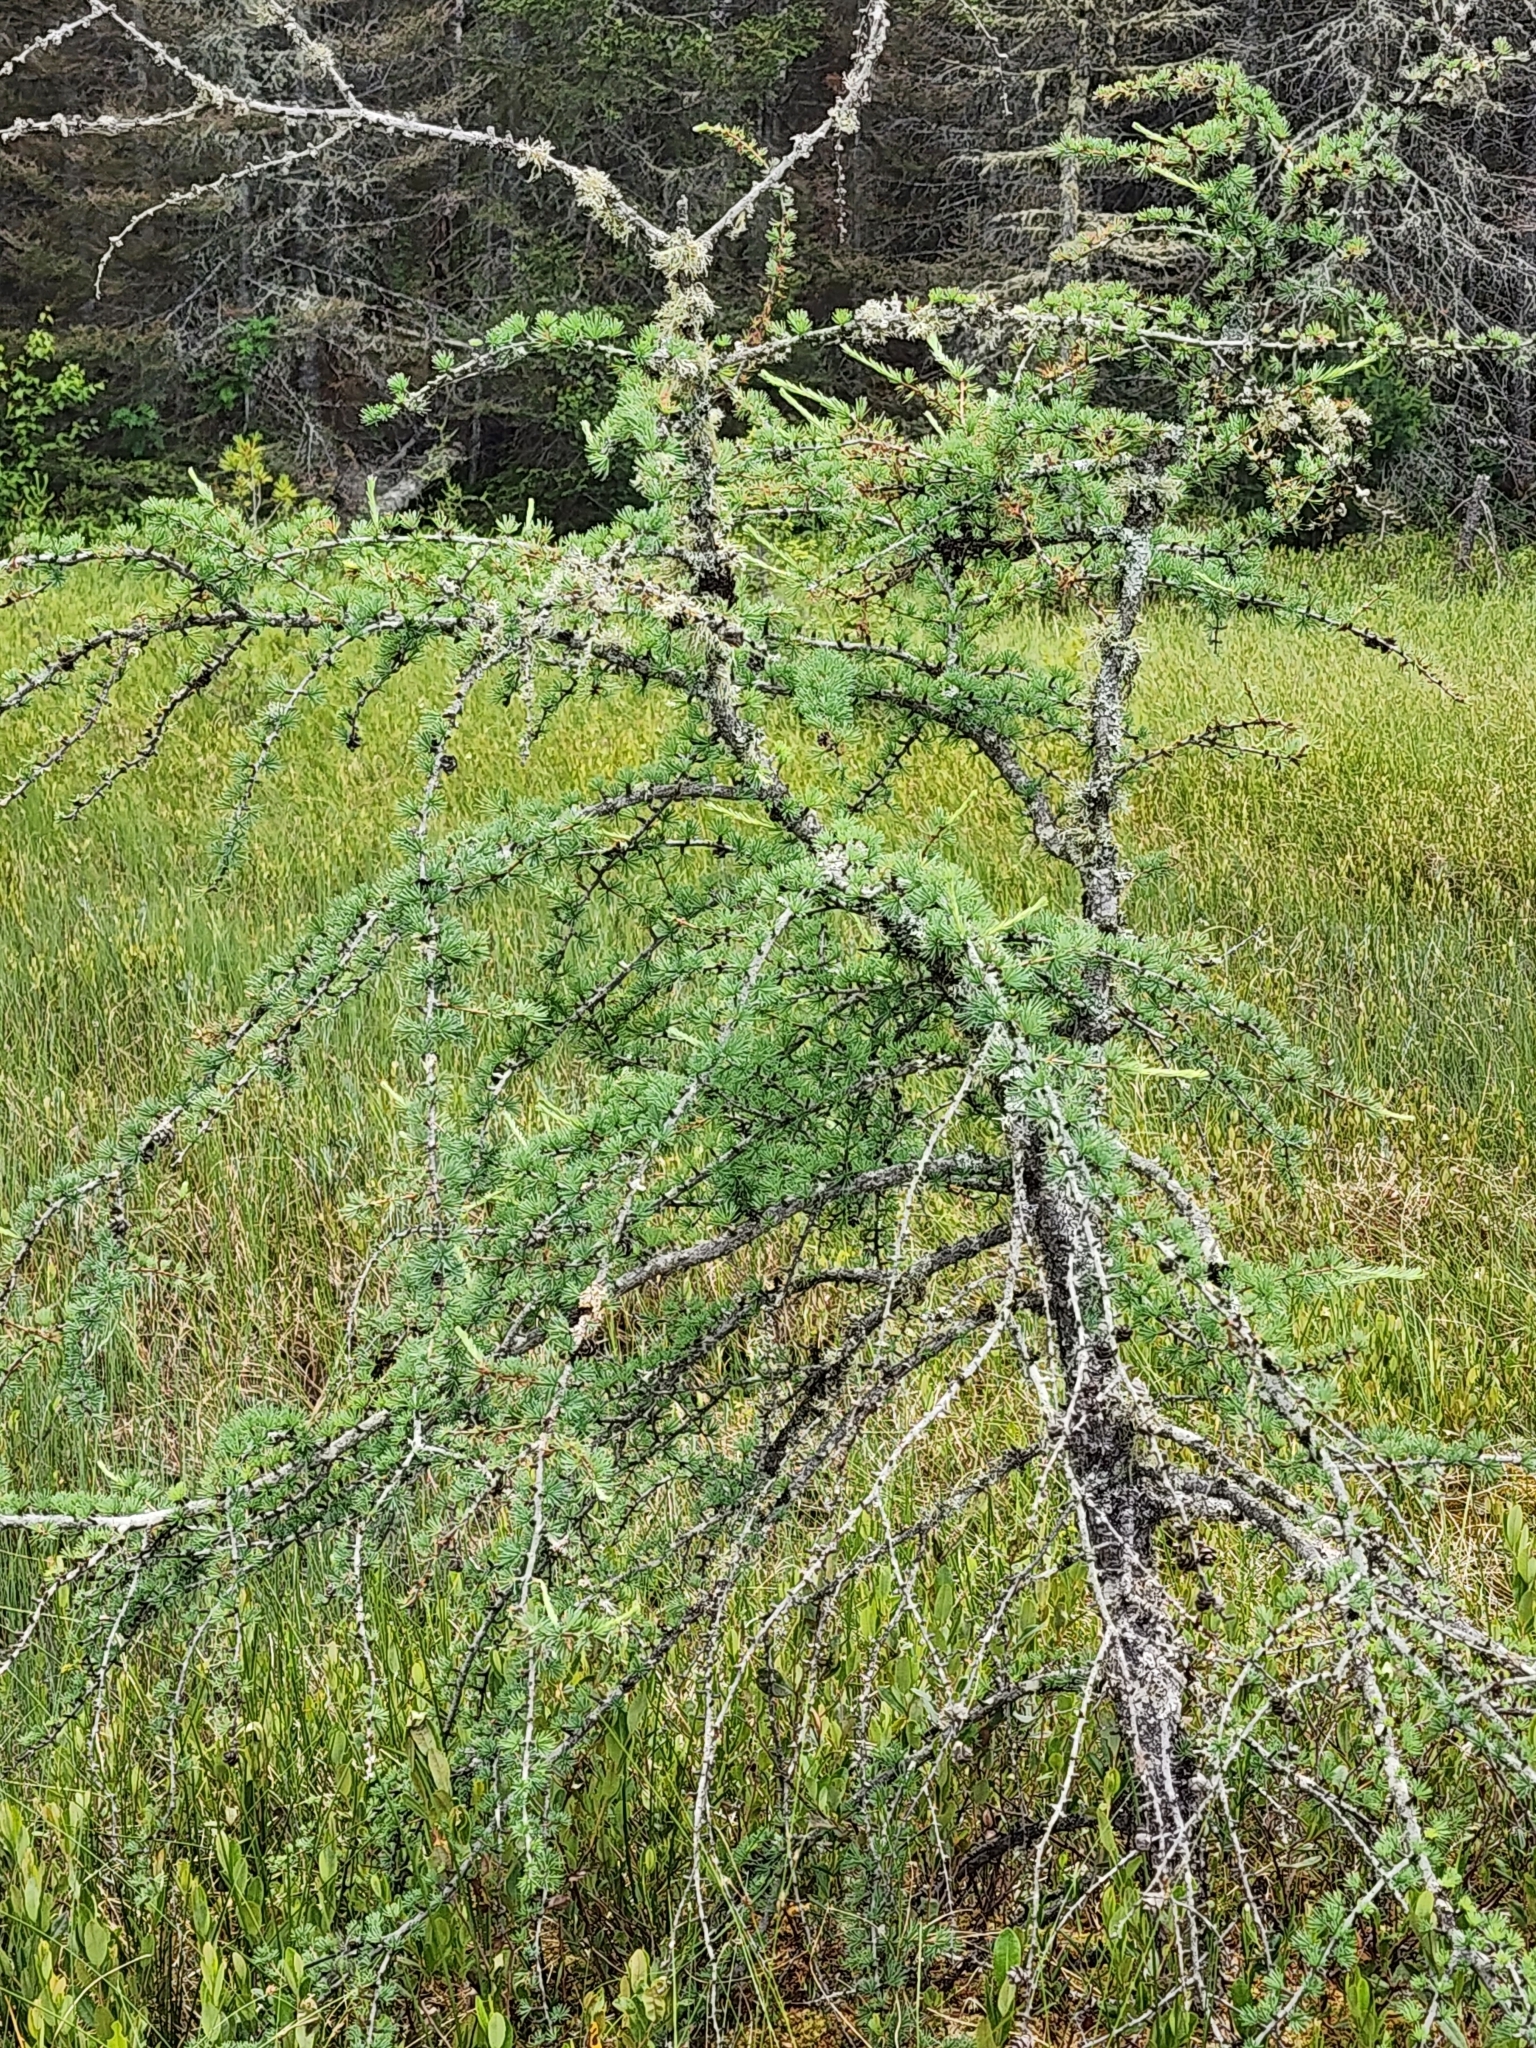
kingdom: Plantae
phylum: Tracheophyta
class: Pinopsida
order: Pinales
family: Pinaceae
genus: Larix
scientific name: Larix laricina
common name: American larch
